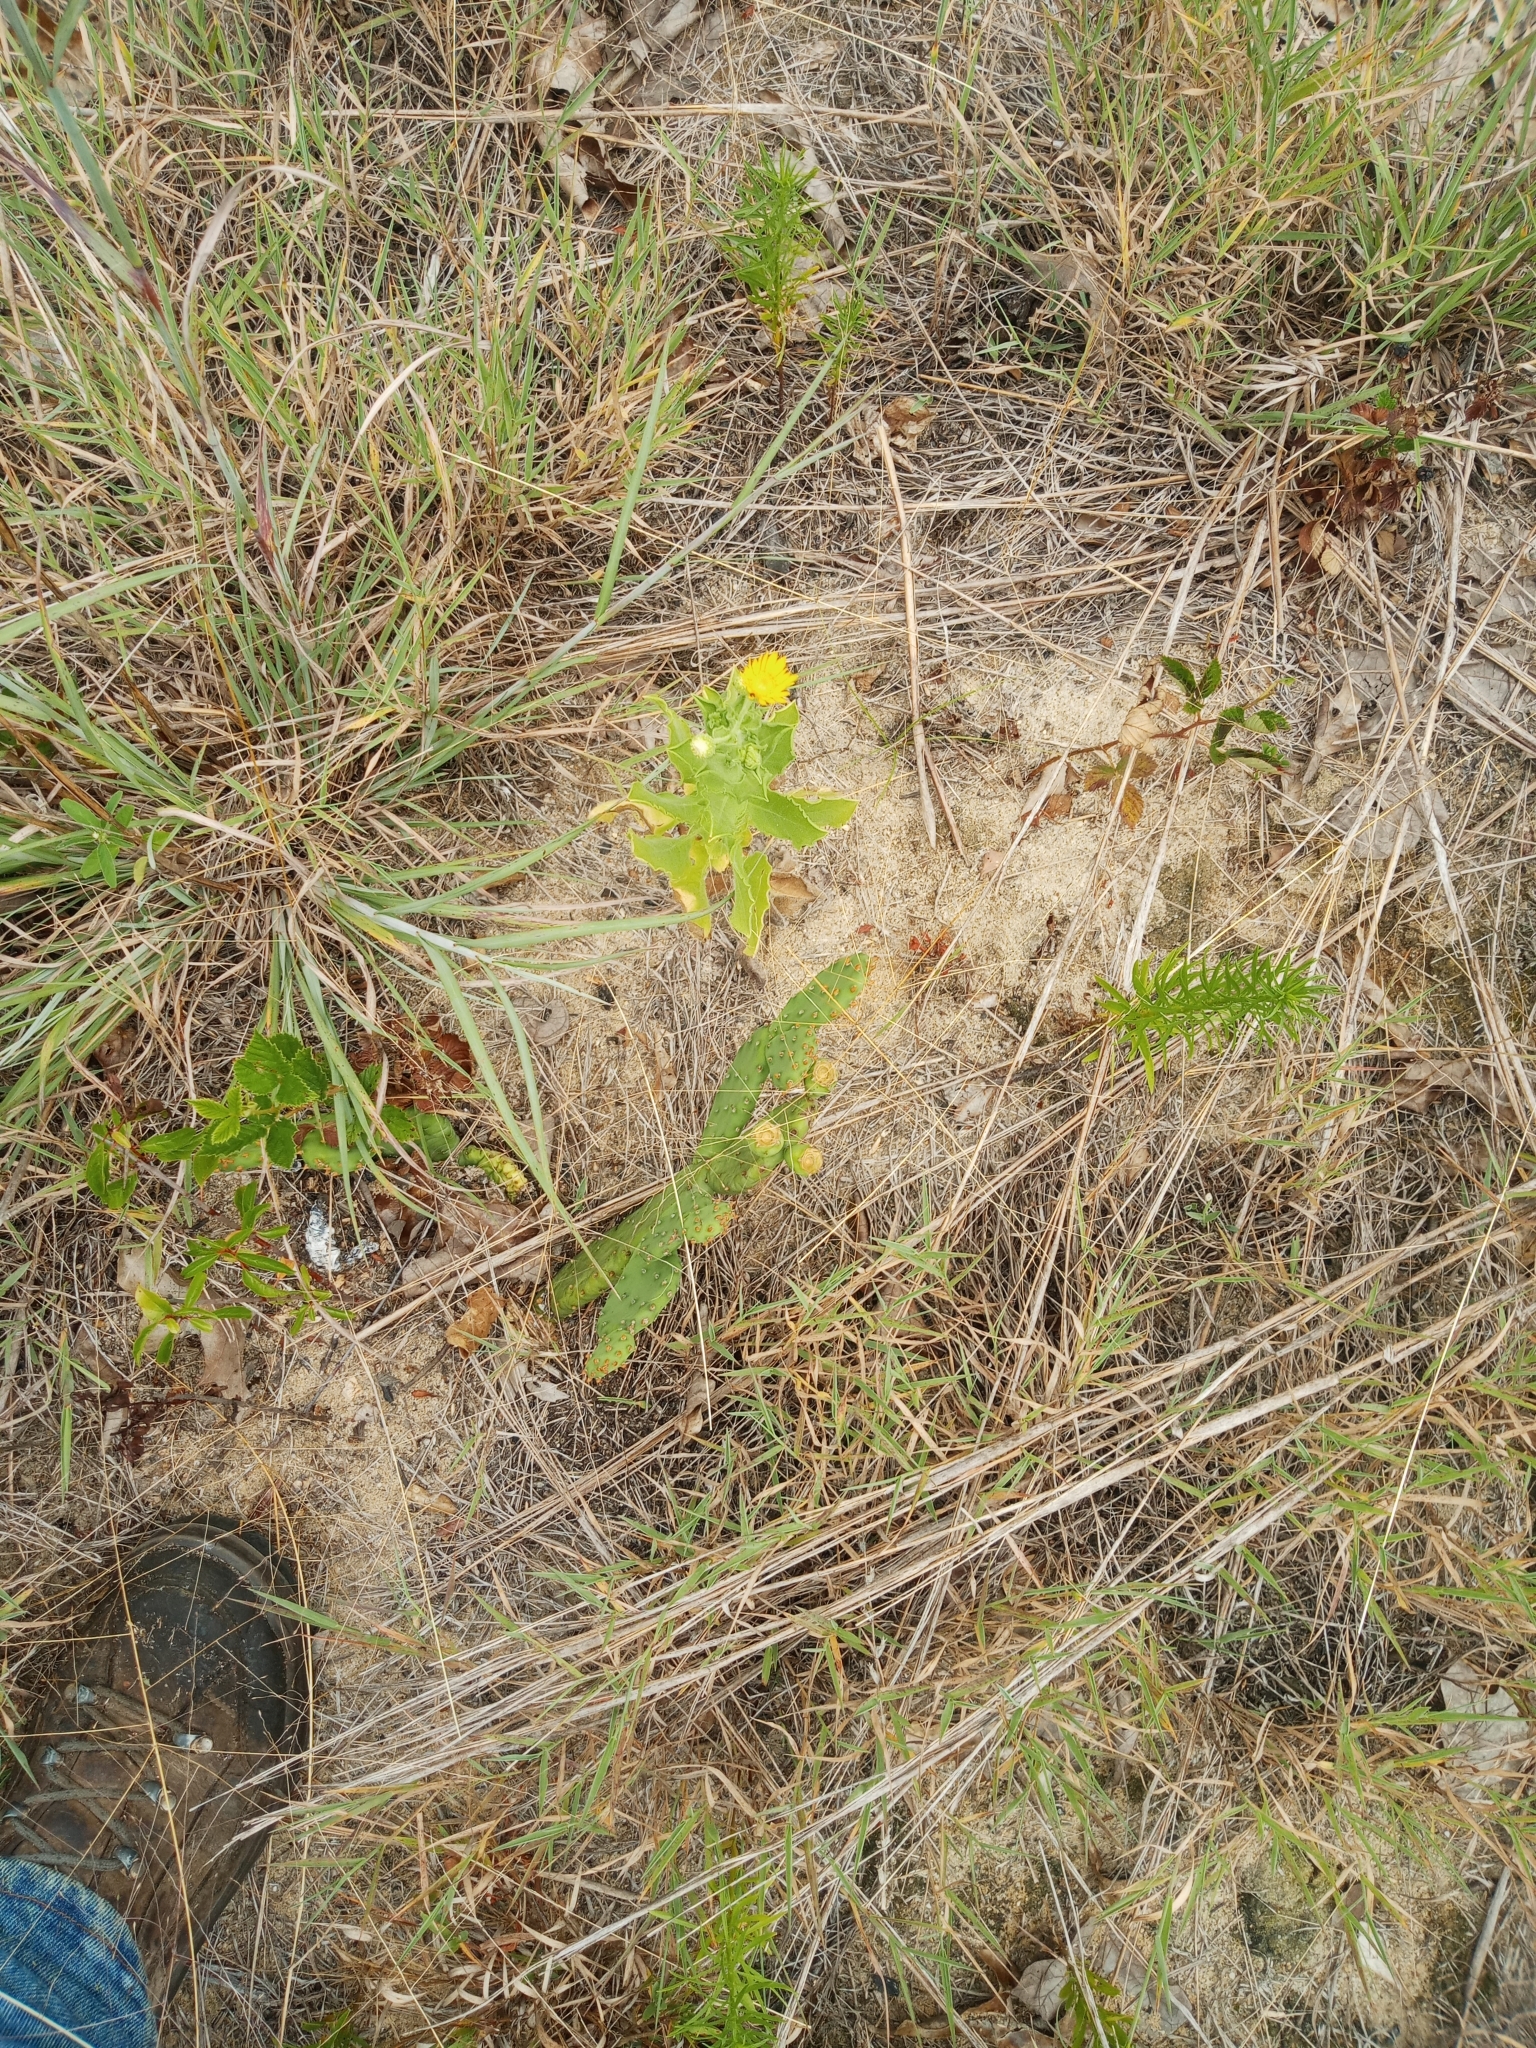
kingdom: Plantae
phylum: Tracheophyta
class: Magnoliopsida
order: Asterales
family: Asteraceae
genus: Heterotheca
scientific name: Heterotheca subaxillaris
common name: Camphorweed
